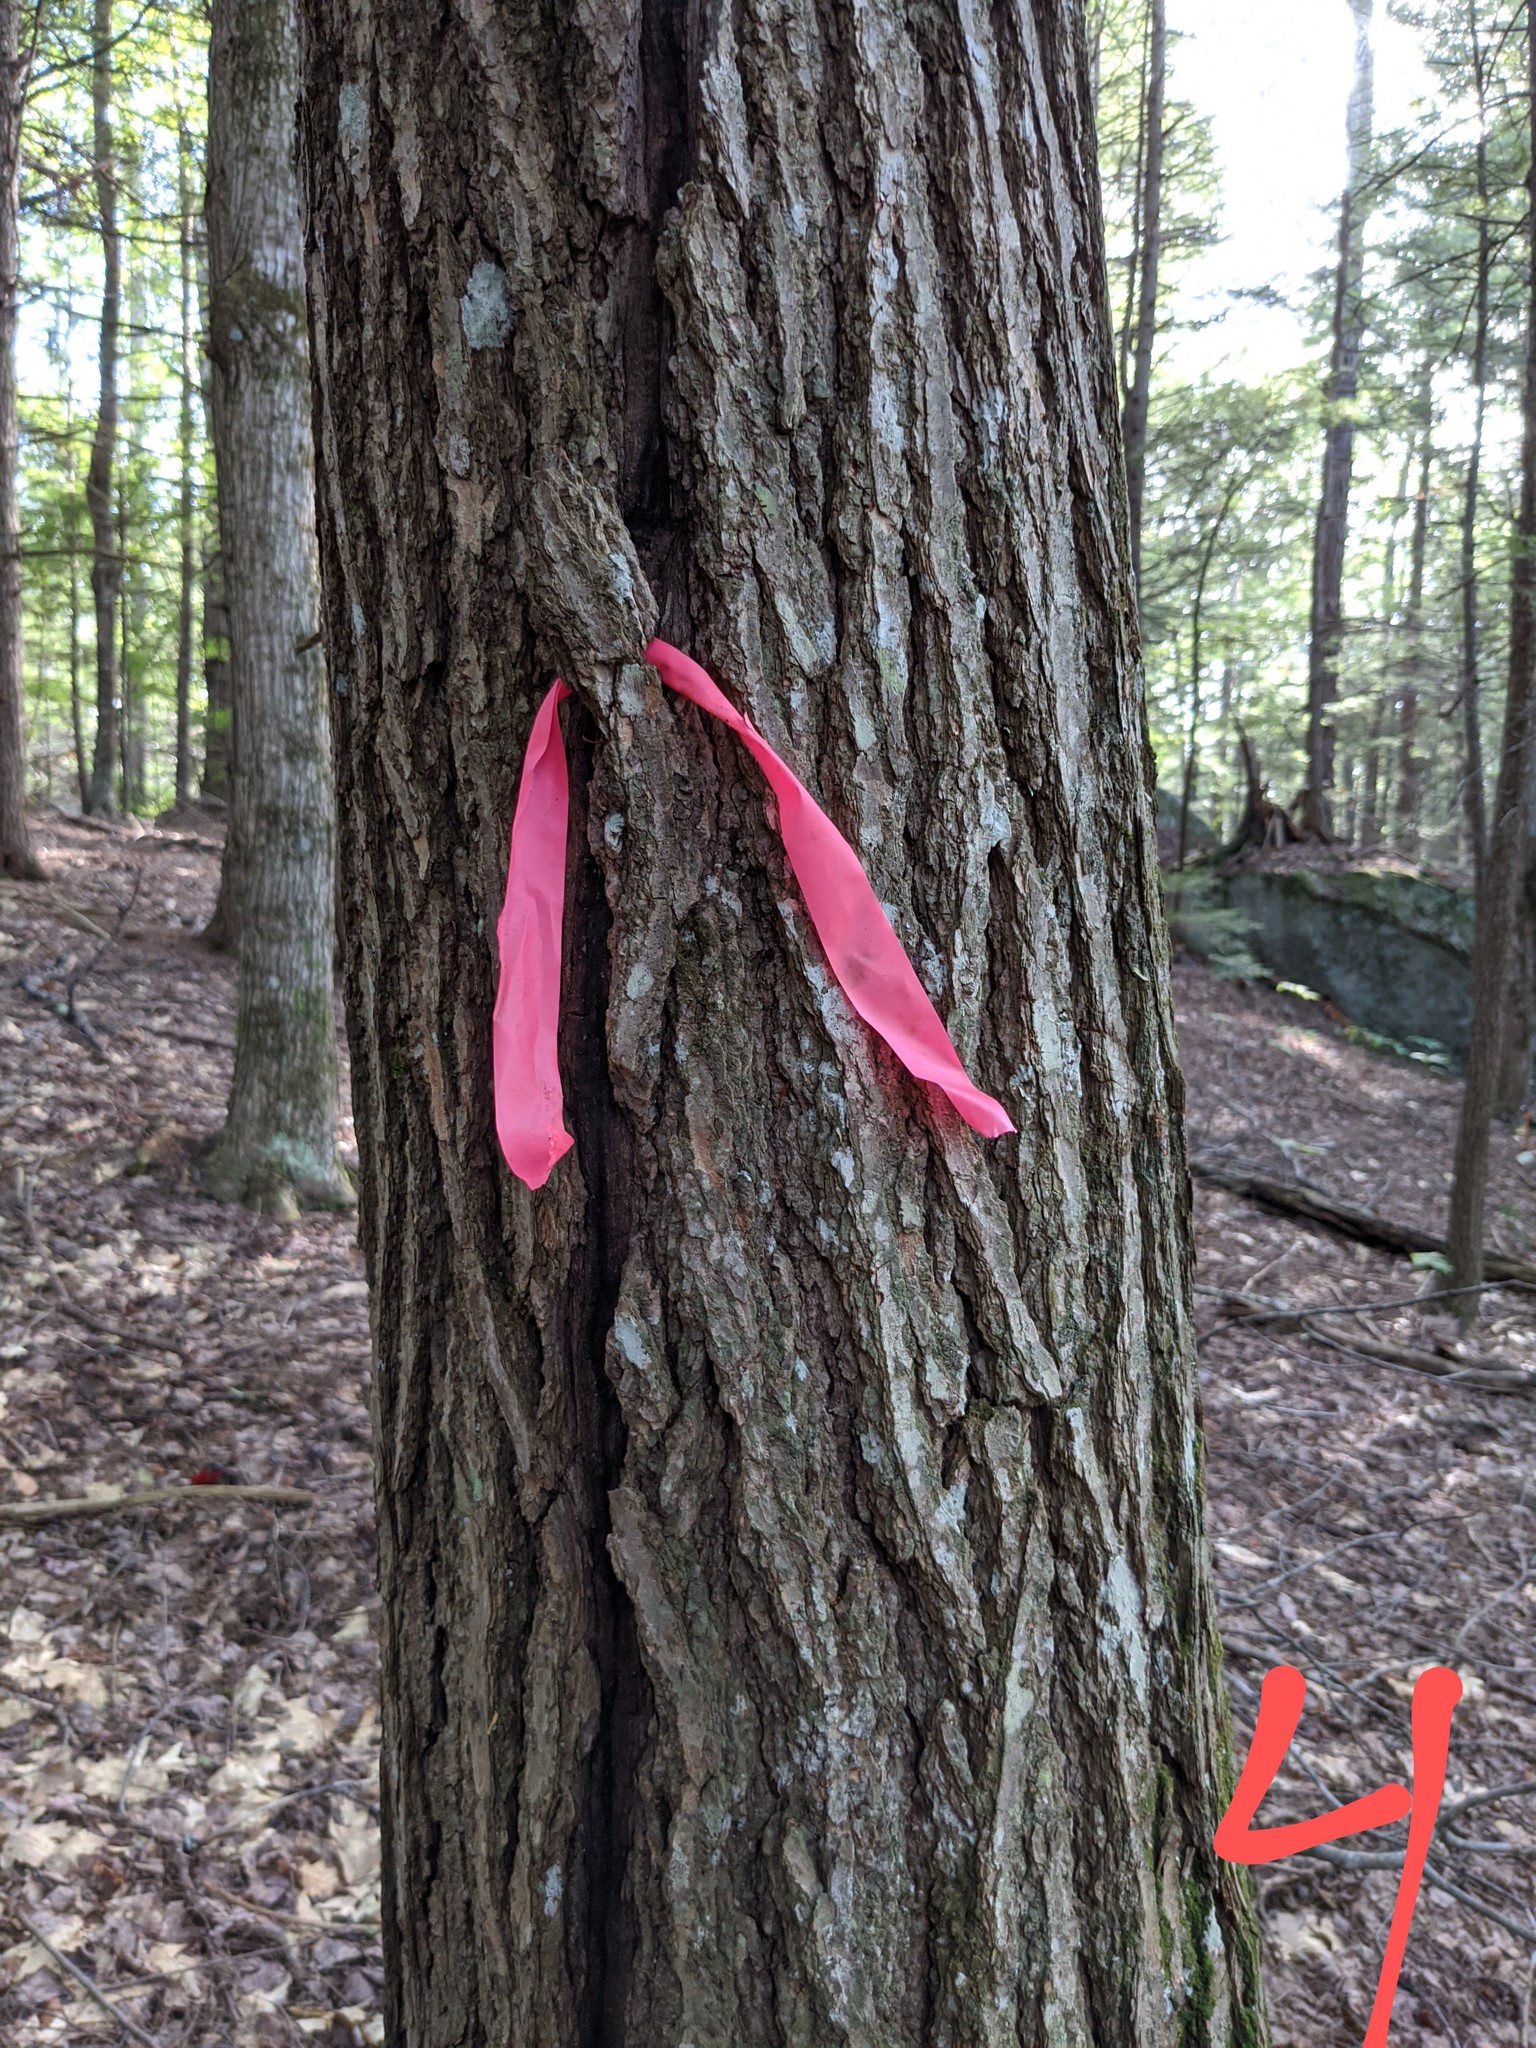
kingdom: Plantae
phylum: Tracheophyta
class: Pinopsida
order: Pinales
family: Pinaceae
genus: Tsuga
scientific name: Tsuga canadensis
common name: Eastern hemlock
